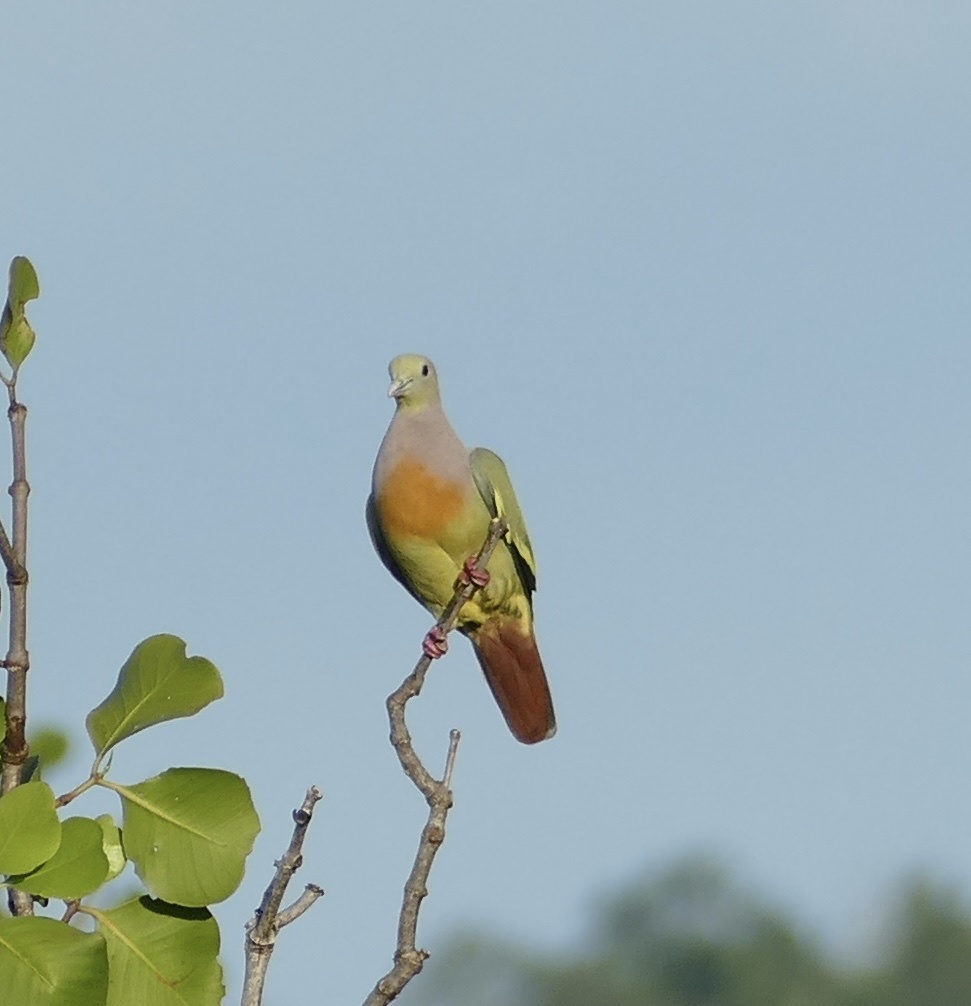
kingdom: Animalia
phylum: Chordata
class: Aves
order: Columbiformes
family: Columbidae
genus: Treron
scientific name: Treron vernans
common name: Pink-necked green pigeon
